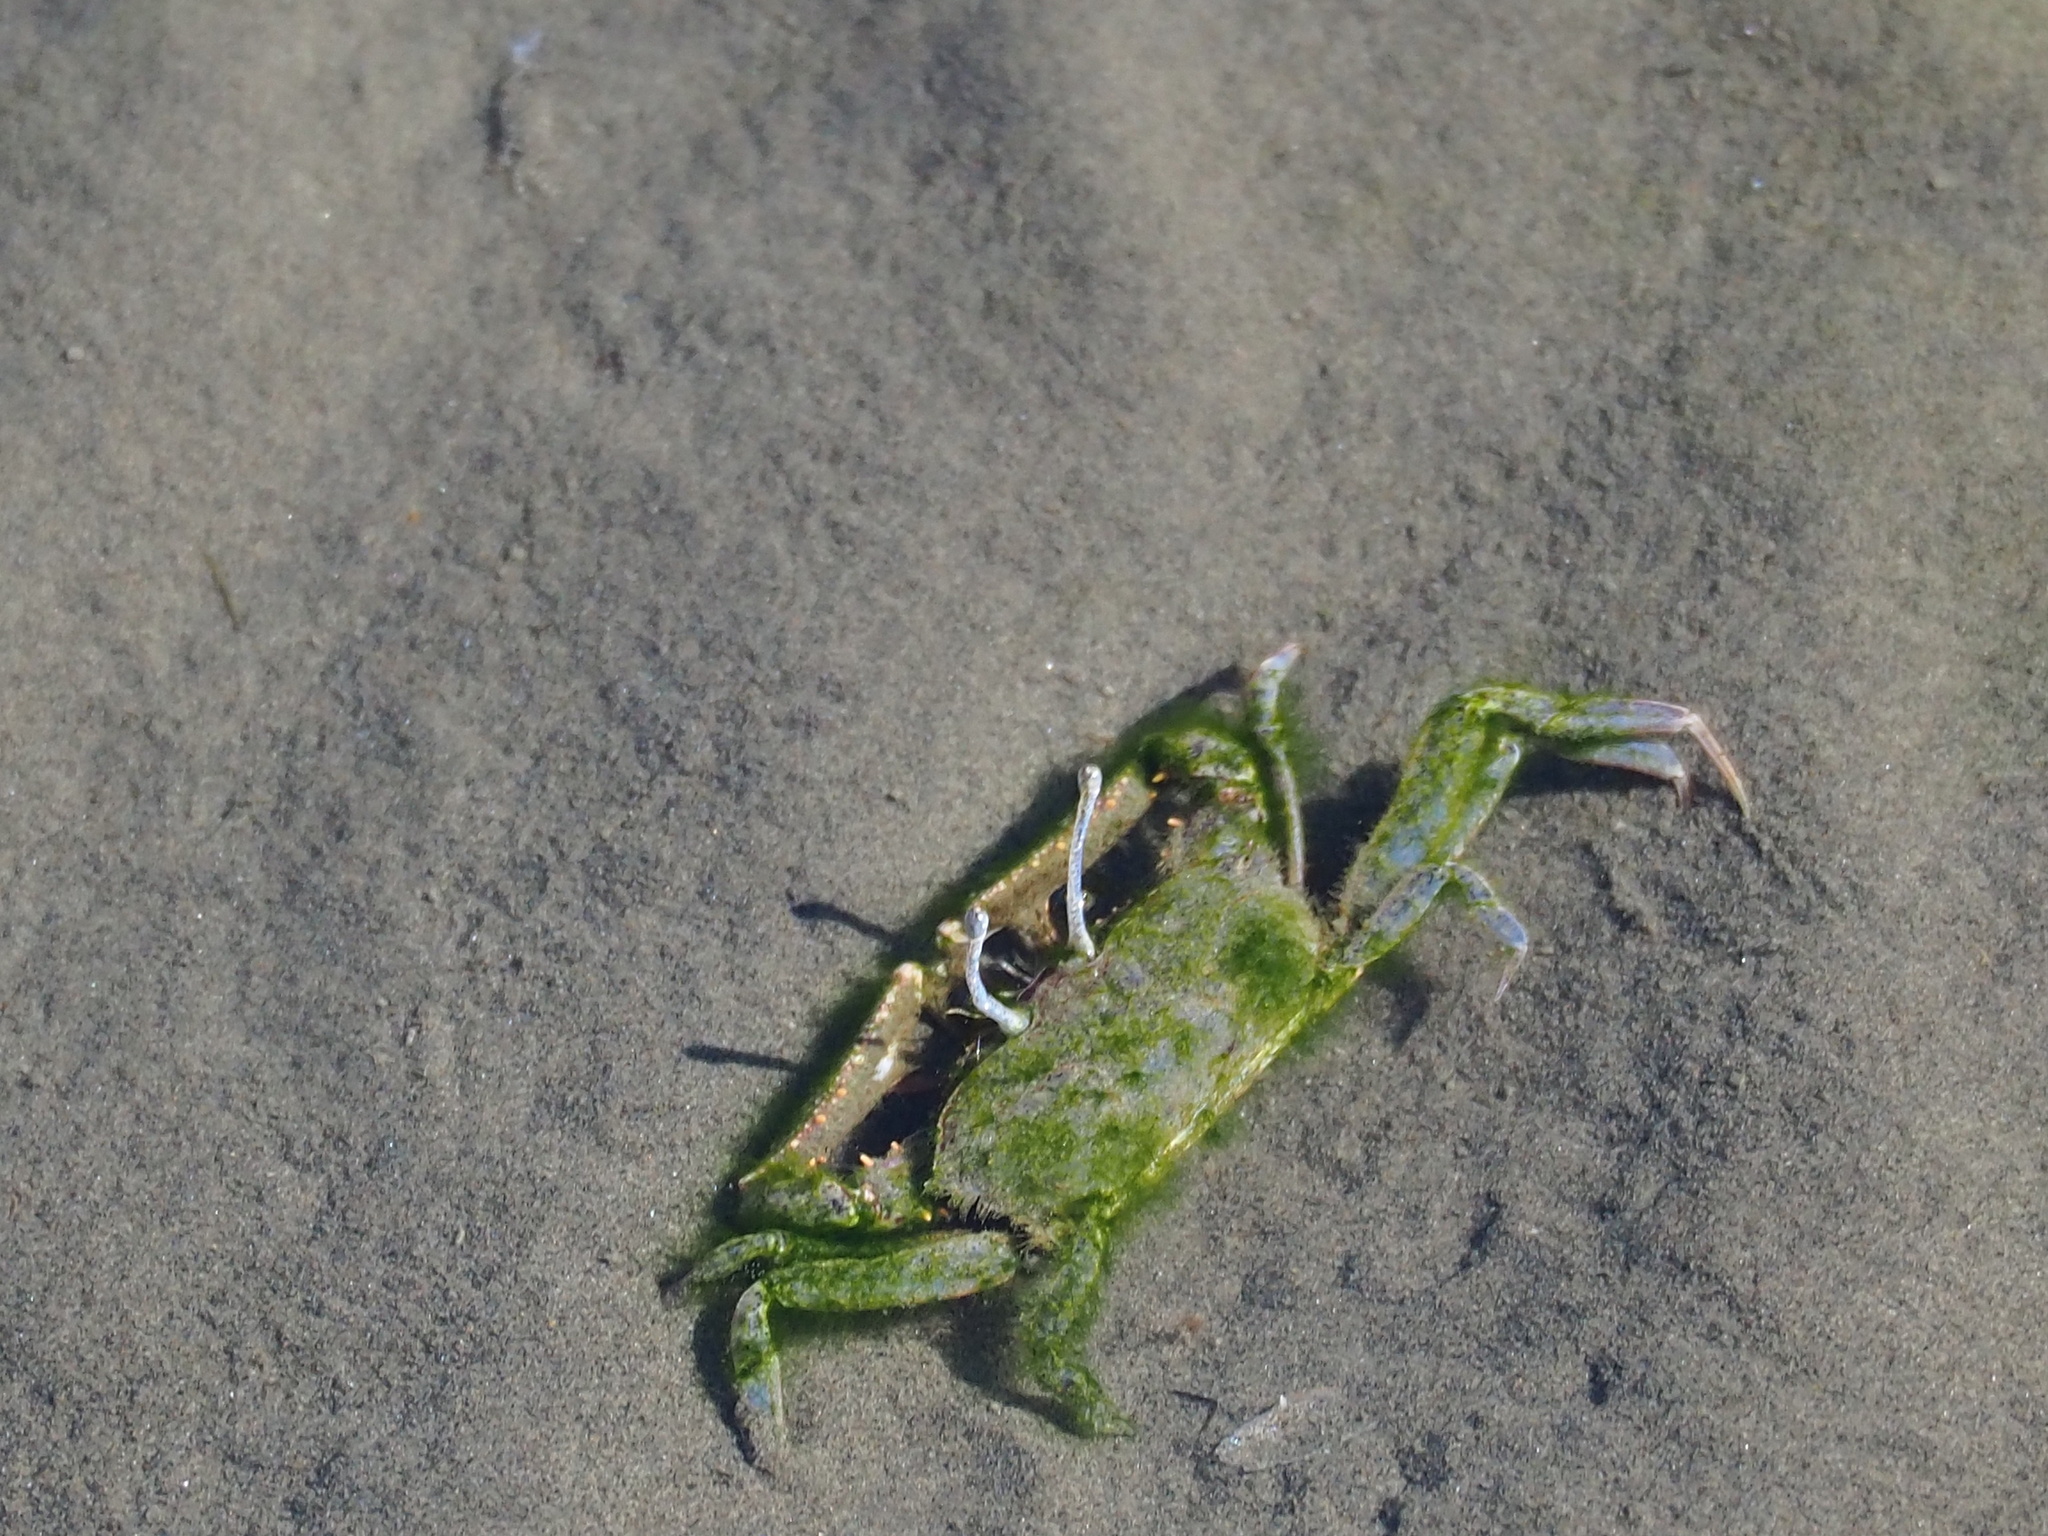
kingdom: Animalia
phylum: Arthropoda
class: Malacostraca
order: Decapoda
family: Macrophthalmidae
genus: Macrophthalmus
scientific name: Macrophthalmus abbreviatus
